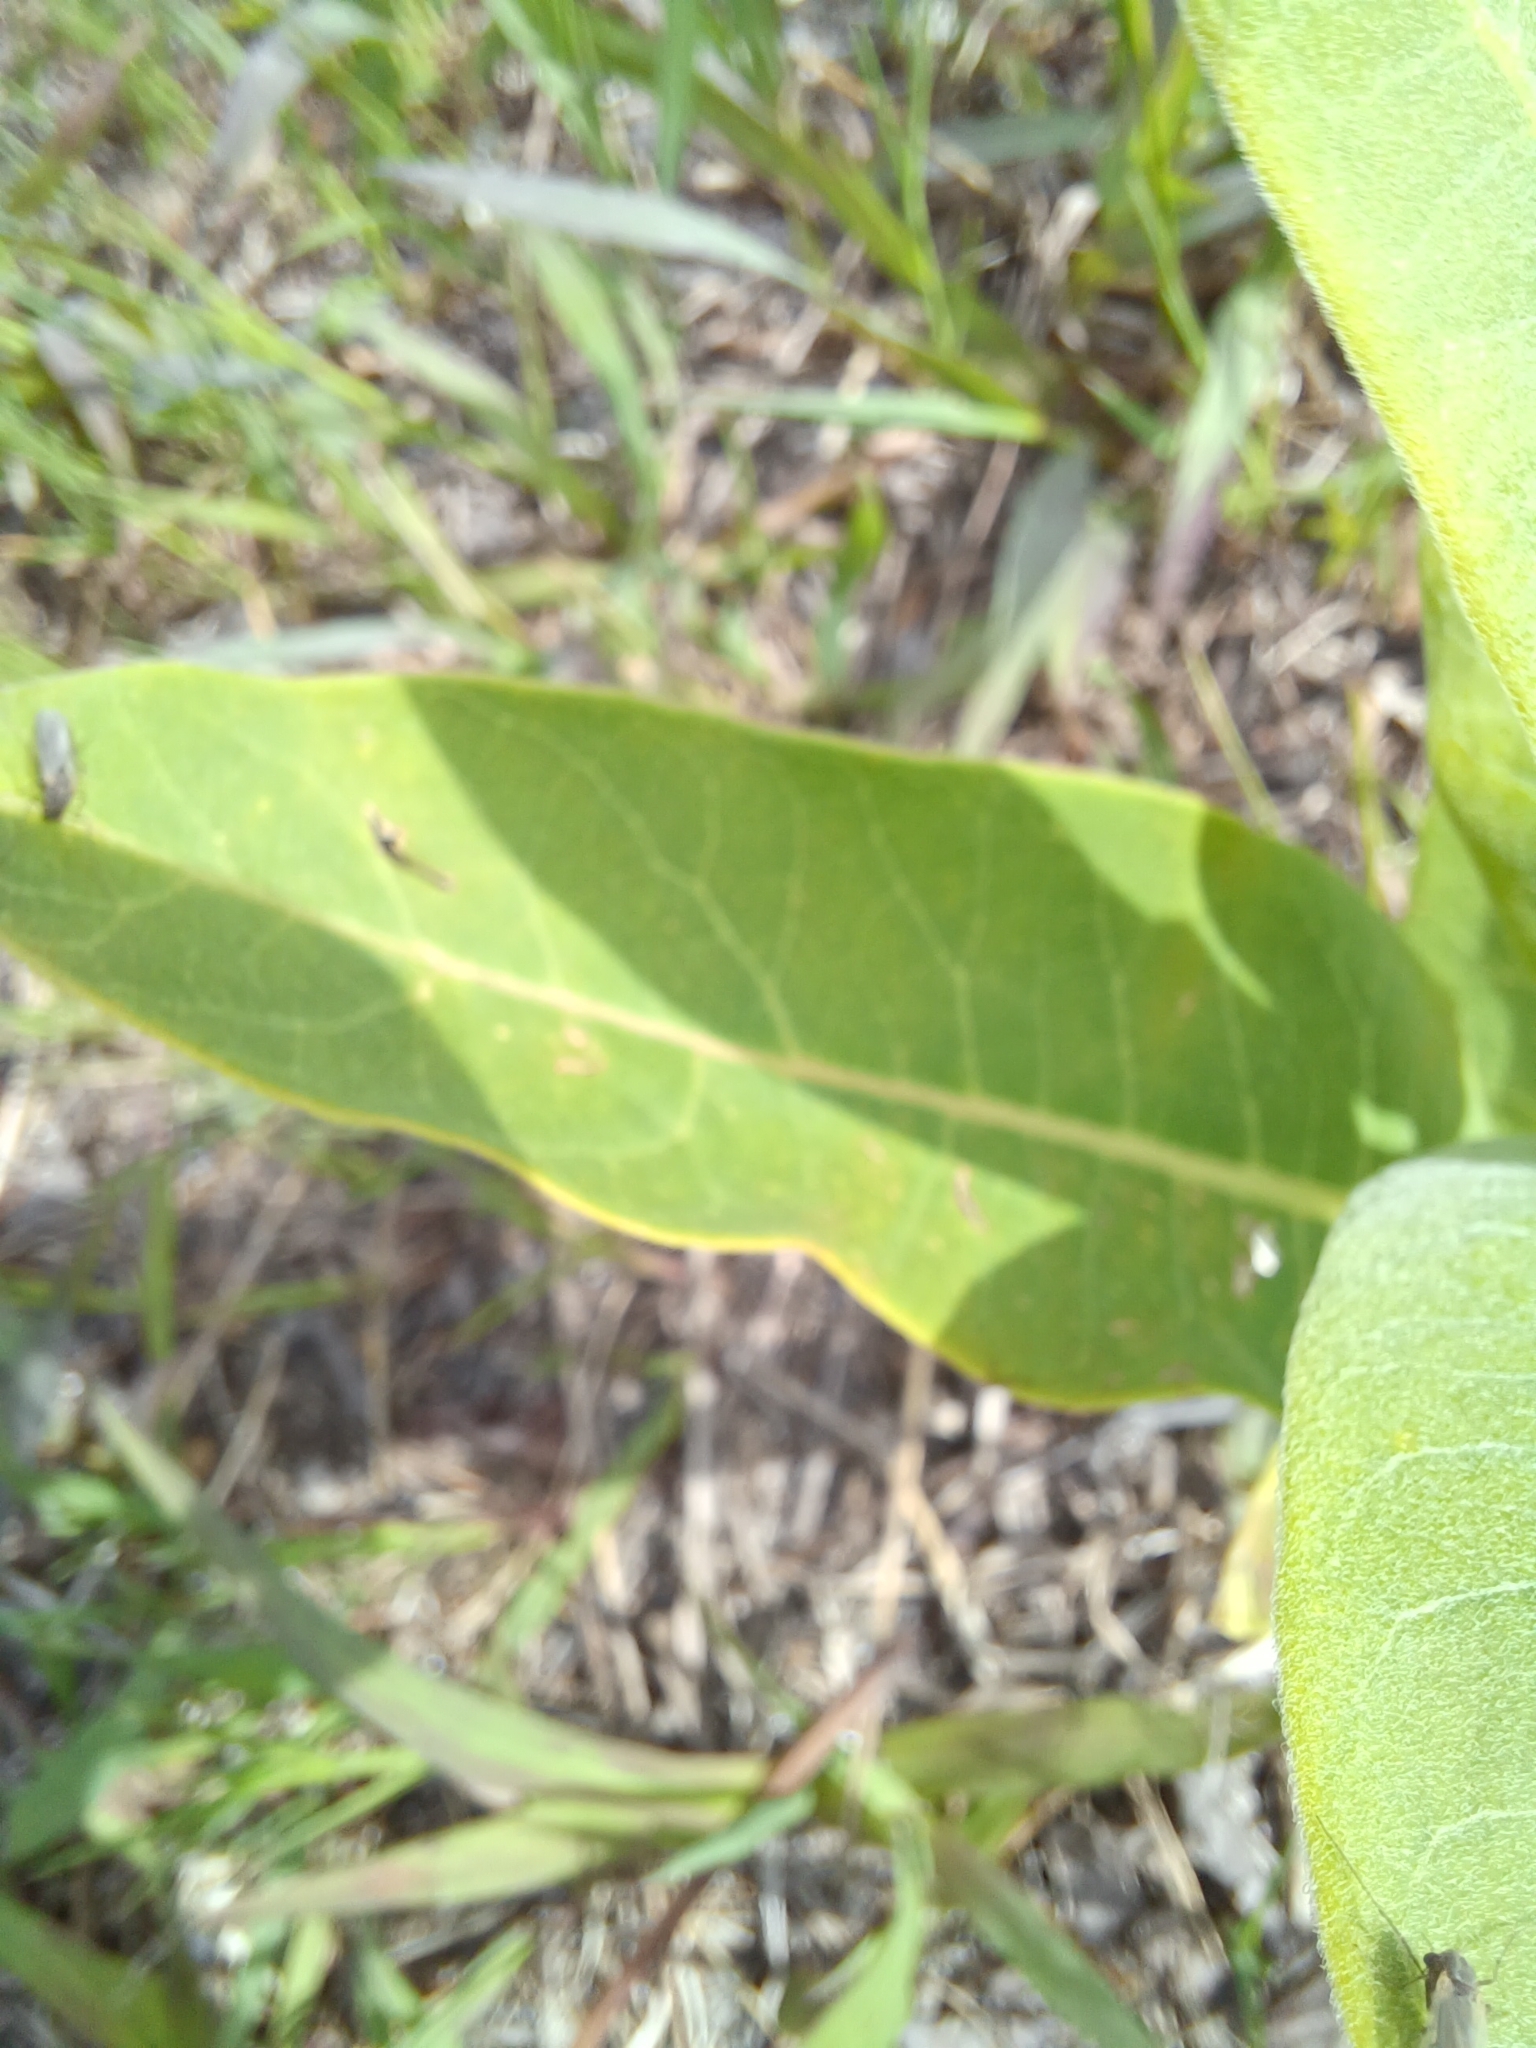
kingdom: Plantae
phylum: Tracheophyta
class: Magnoliopsida
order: Gentianales
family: Apocynaceae
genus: Asclepias
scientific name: Asclepias syriaca
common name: Common milkweed
